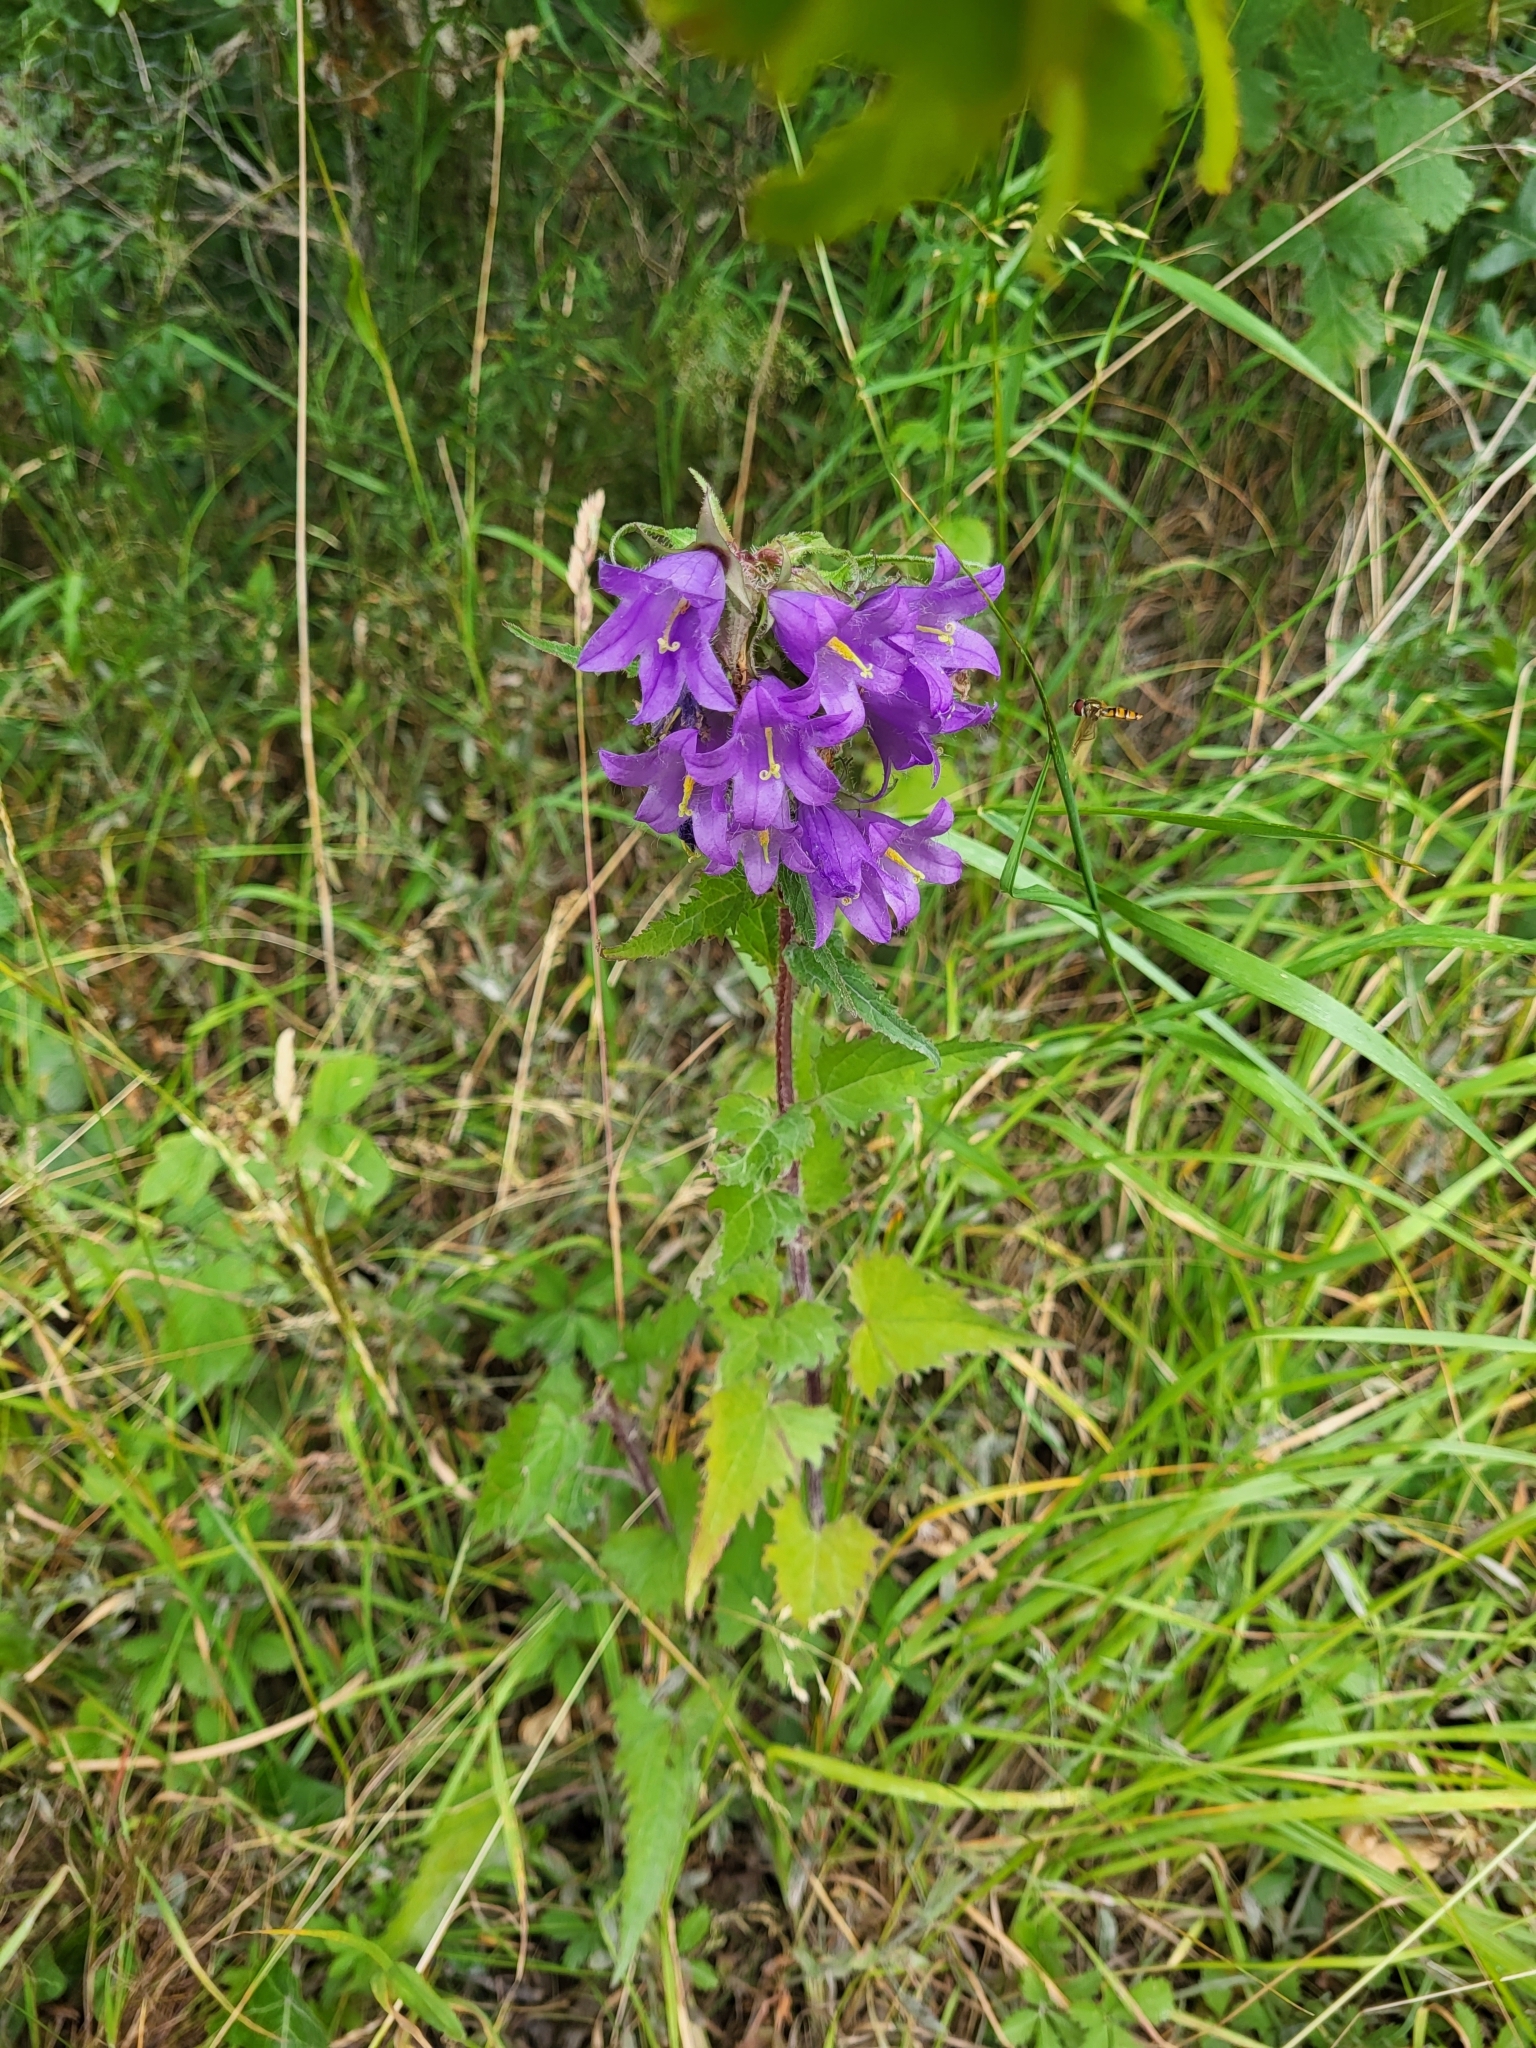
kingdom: Plantae
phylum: Tracheophyta
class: Magnoliopsida
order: Asterales
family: Campanulaceae
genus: Campanula
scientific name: Campanula trachelium
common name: Nettle-leaved bellflower
